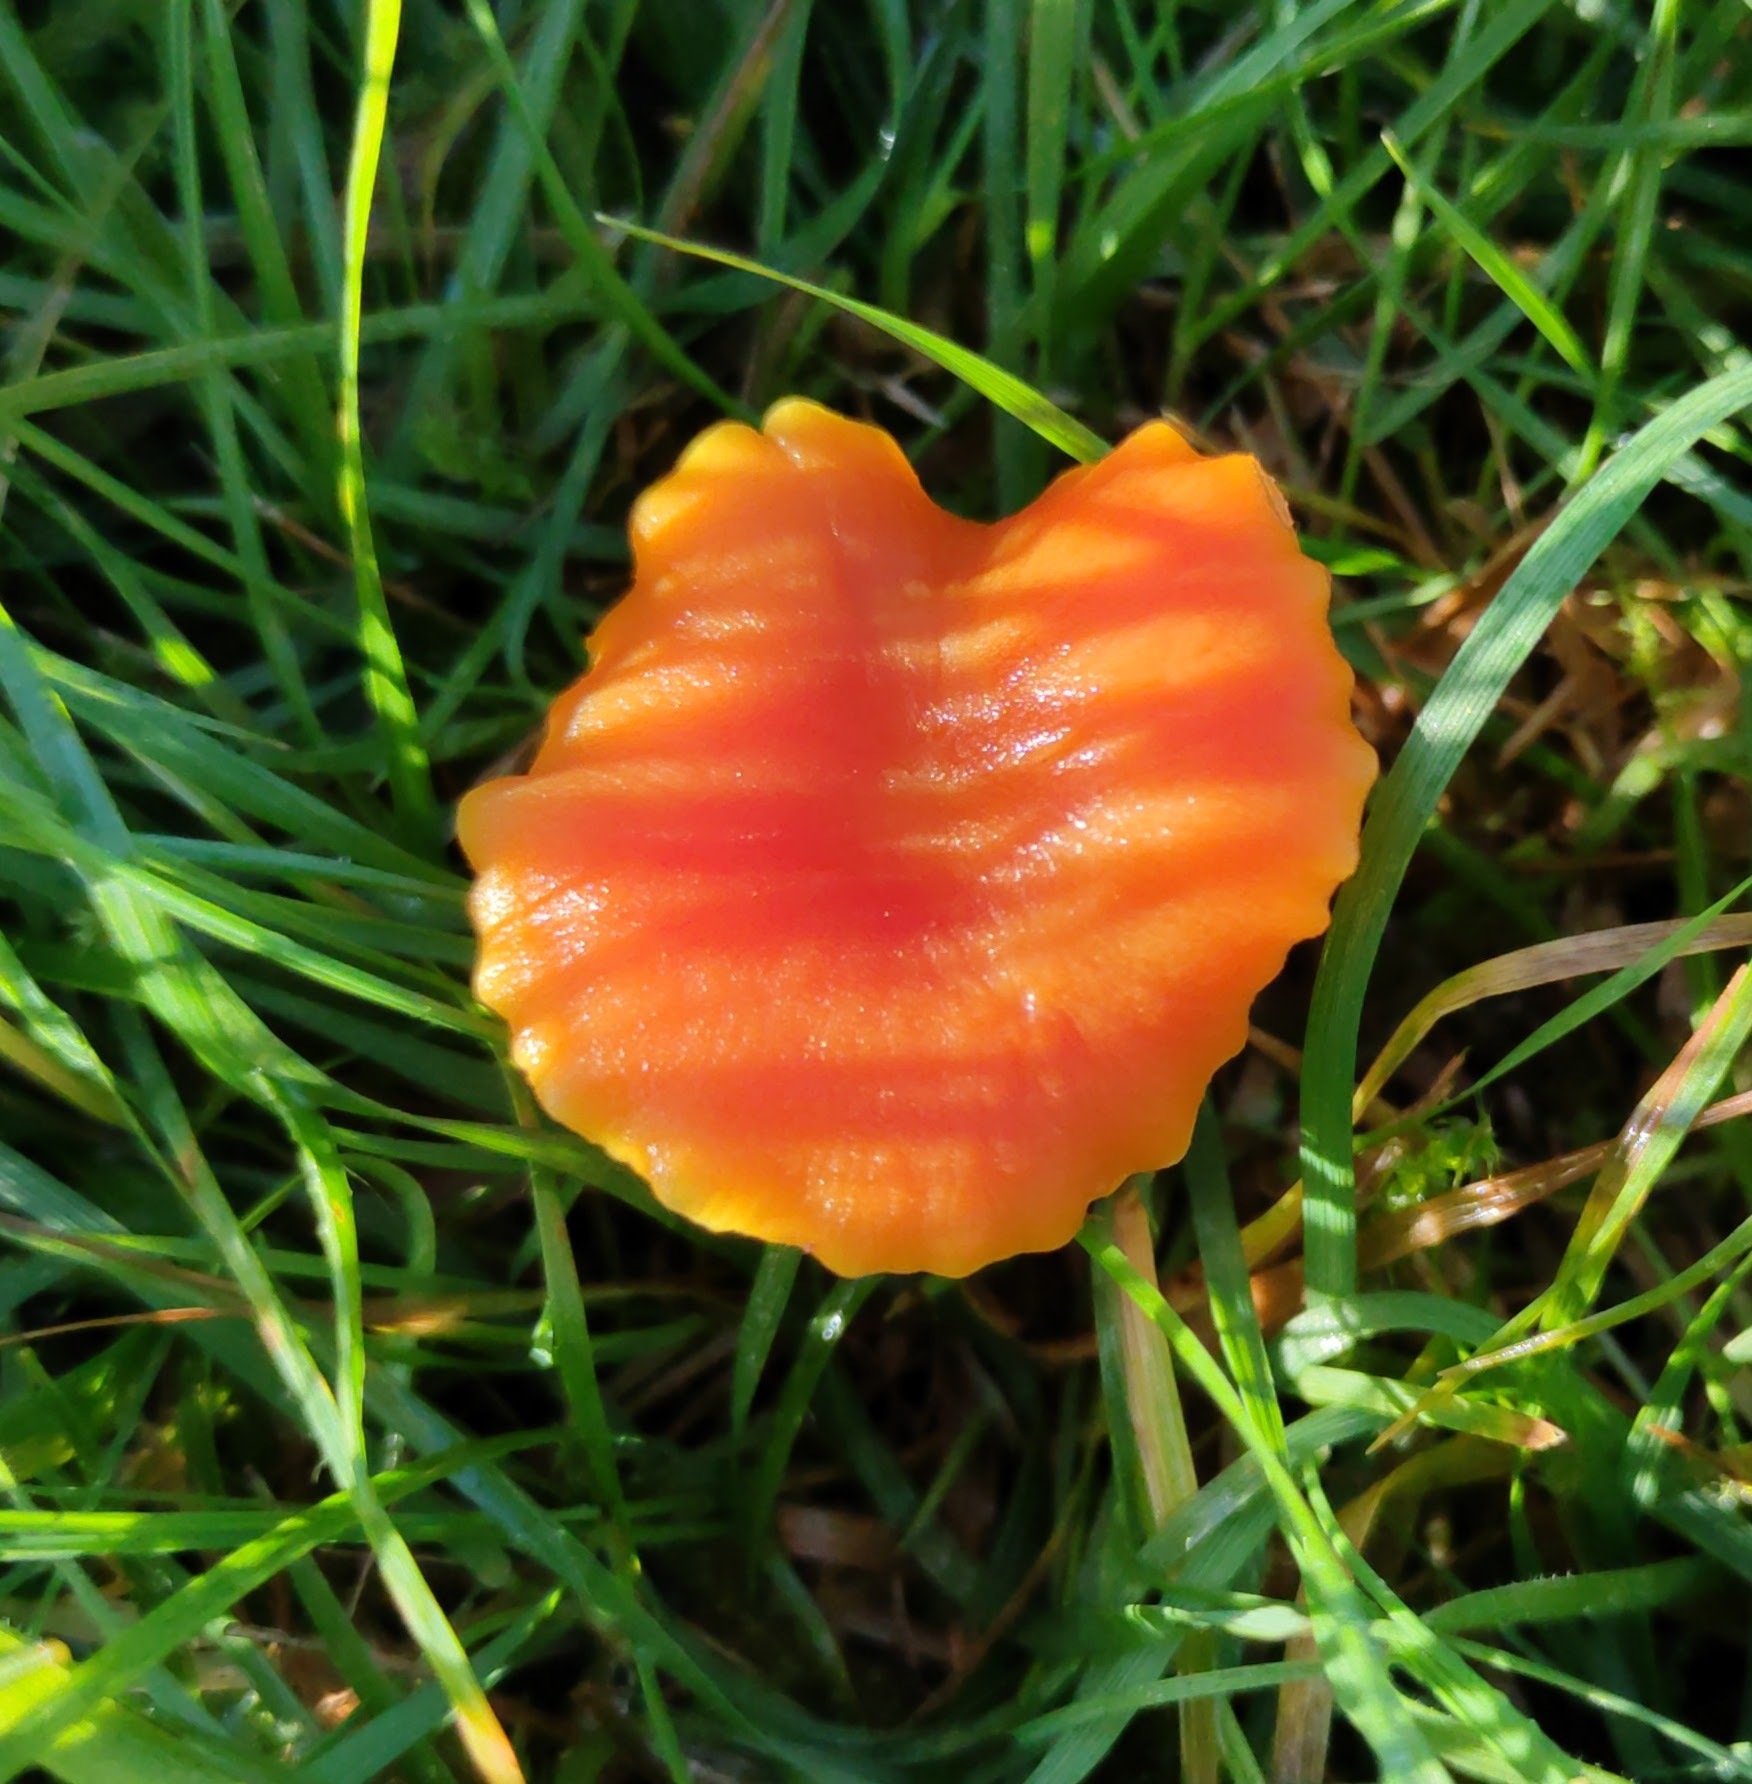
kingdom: Fungi
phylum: Basidiomycota
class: Agaricomycetes
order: Agaricales
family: Hygrophoraceae
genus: Hygrocybe
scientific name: Hygrocybe reidii
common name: Honey waxcap
